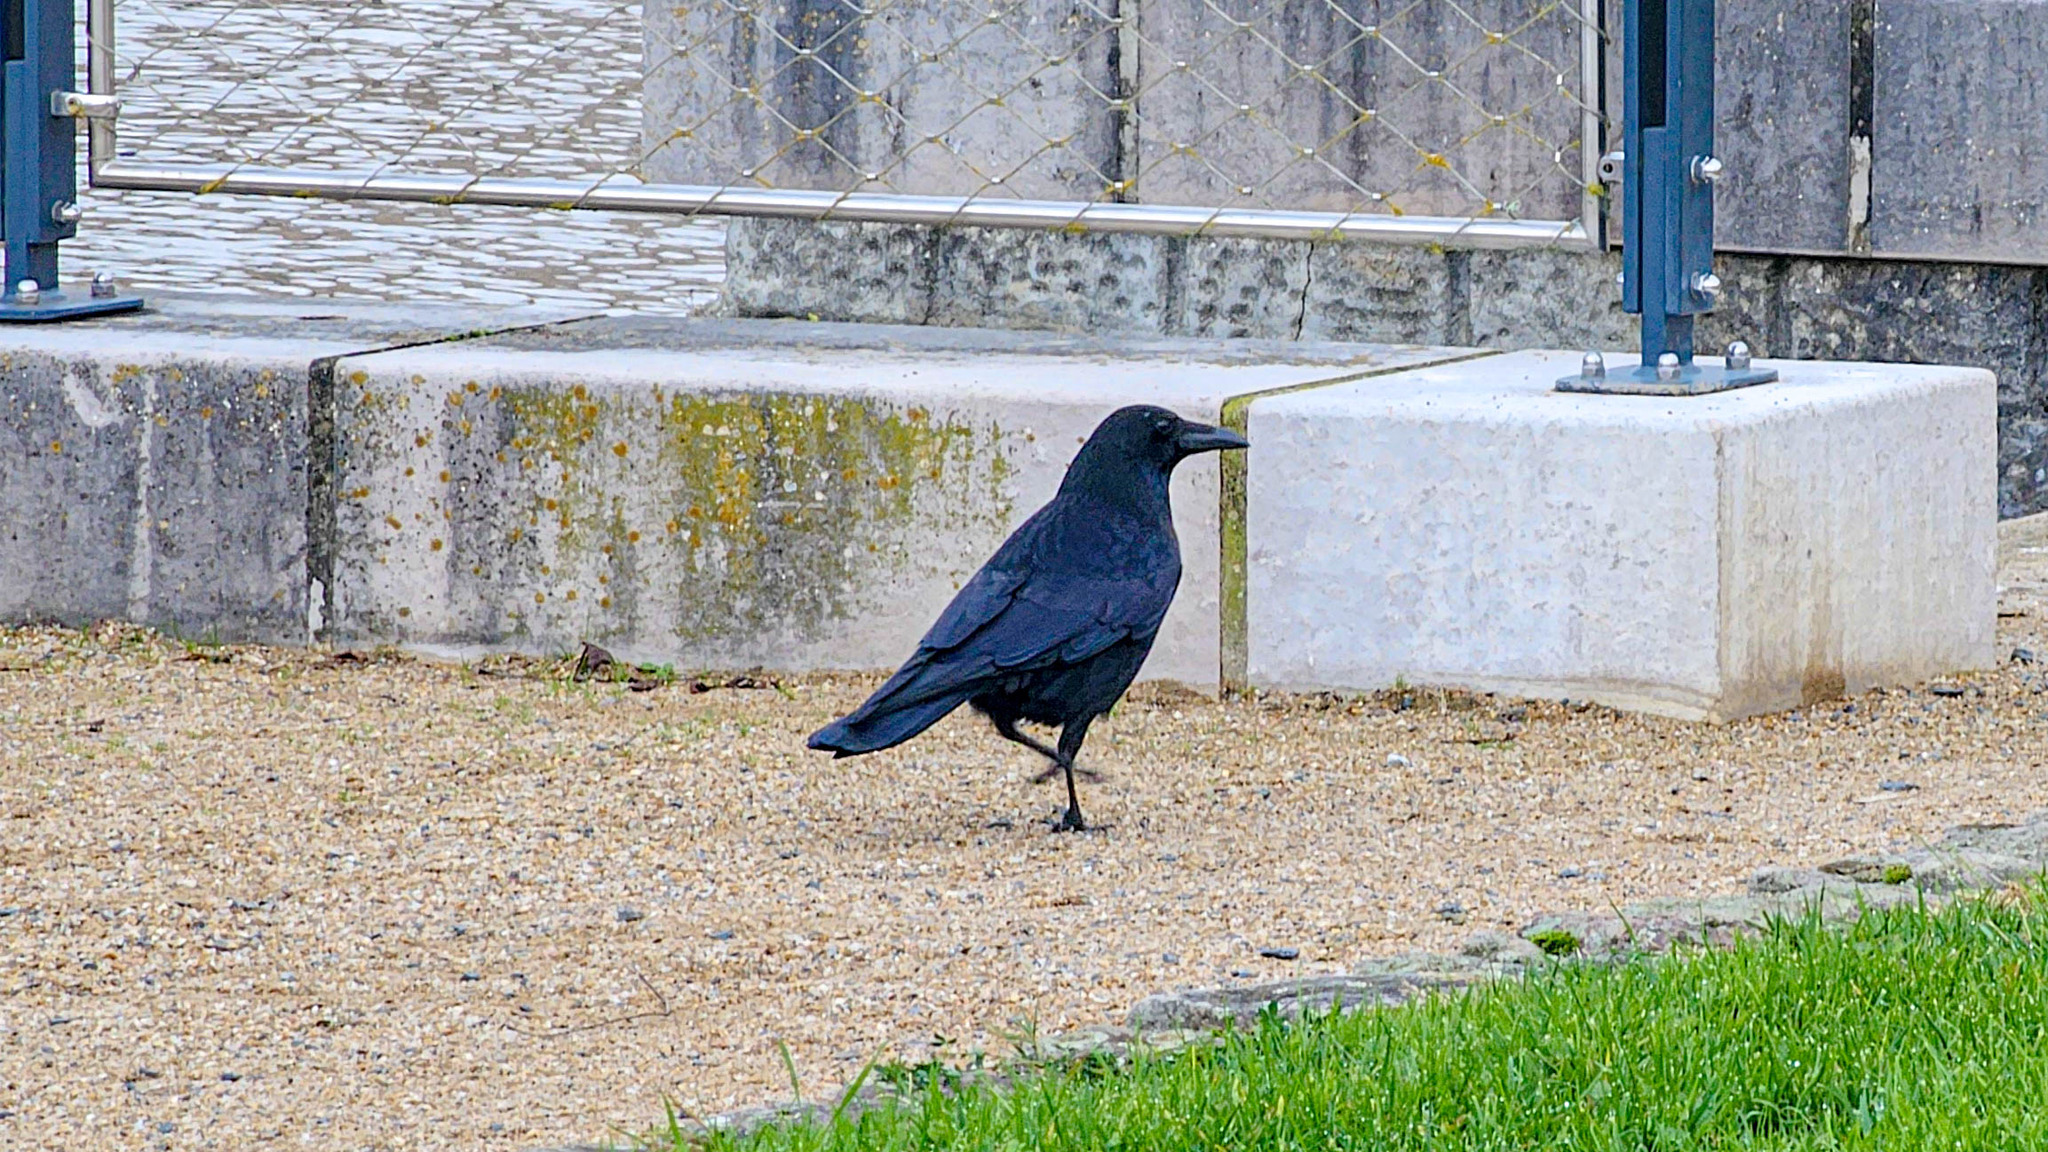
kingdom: Animalia
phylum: Chordata
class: Aves
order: Passeriformes
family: Corvidae
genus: Corvus
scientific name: Corvus corone
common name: Carrion crow
